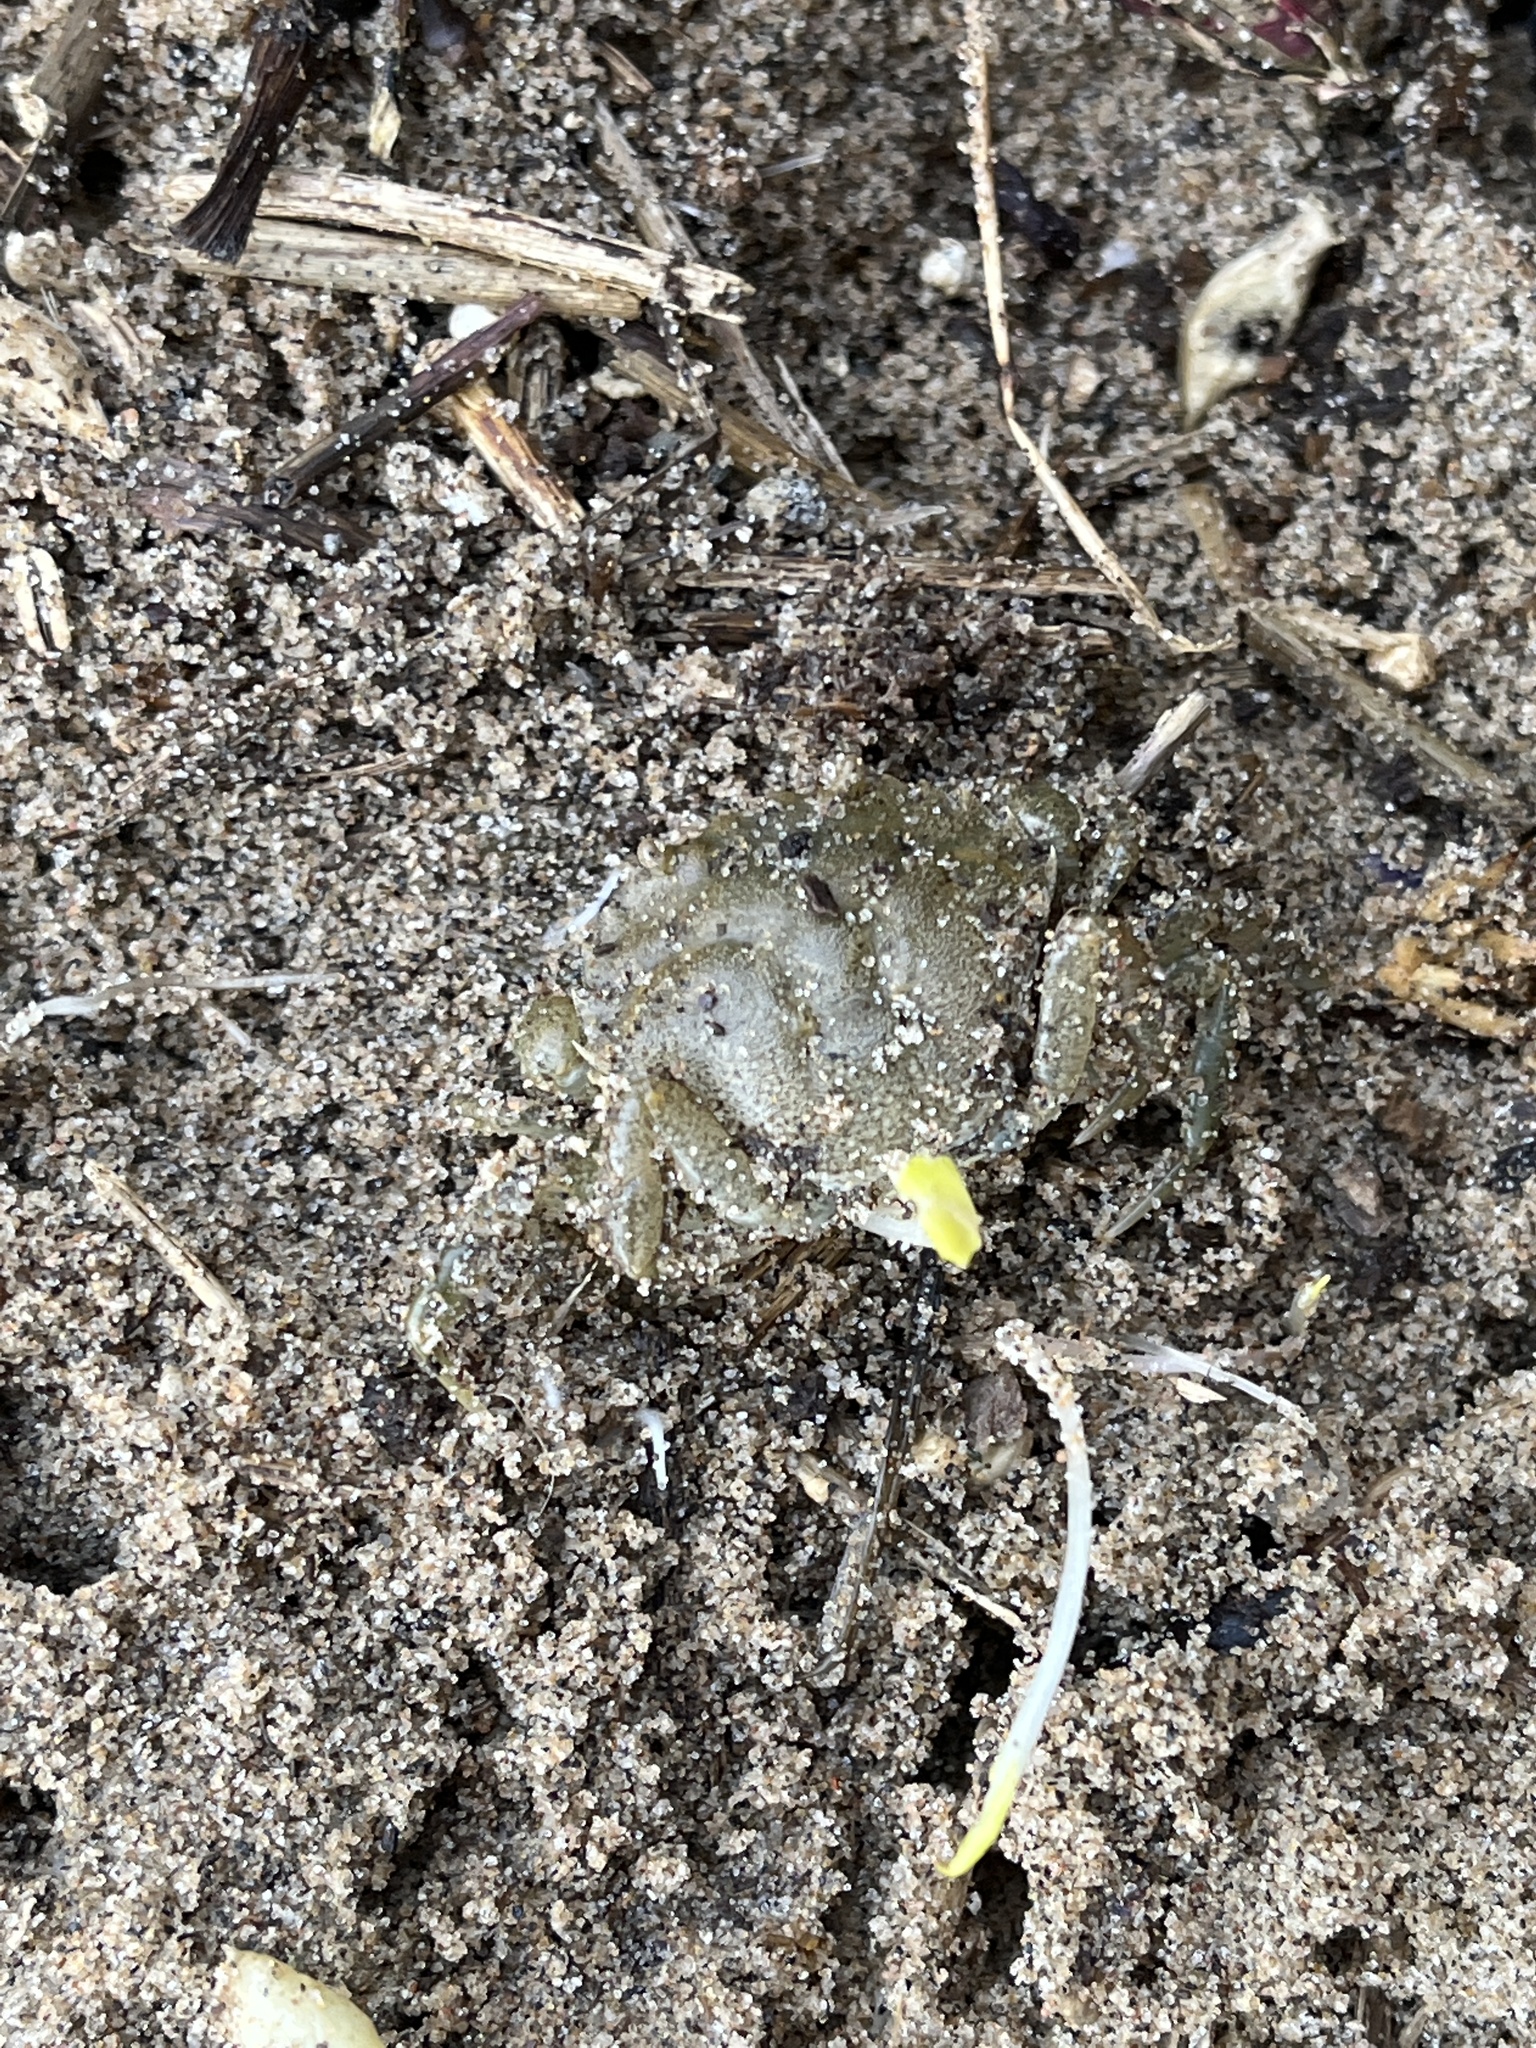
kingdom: Animalia
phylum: Arthropoda
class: Malacostraca
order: Decapoda
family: Carcinidae
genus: Carcinus
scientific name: Carcinus maenas
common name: European green crab
